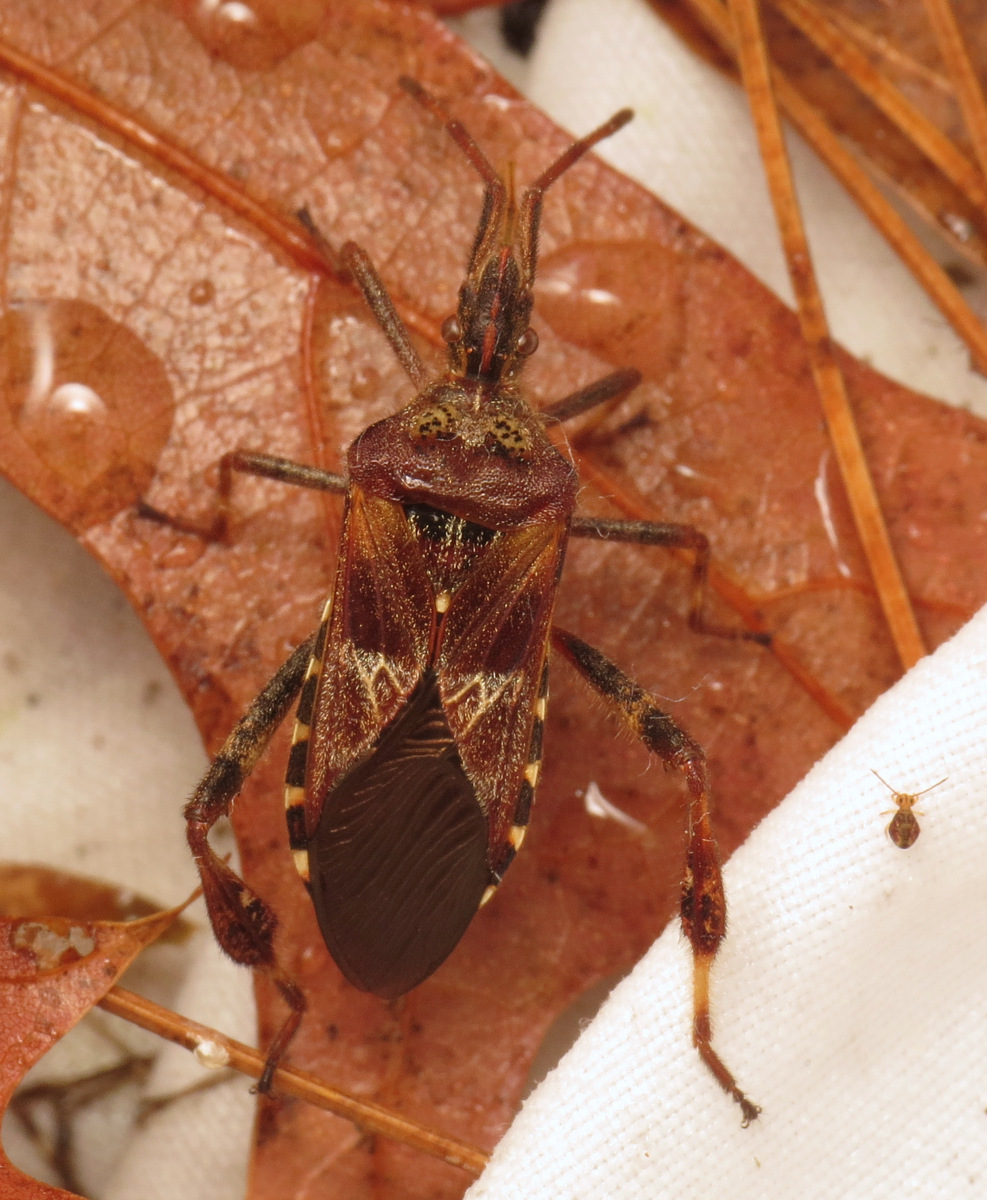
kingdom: Animalia
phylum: Arthropoda
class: Insecta
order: Hemiptera
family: Coreidae
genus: Leptoglossus
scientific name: Leptoglossus occidentalis
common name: Western conifer-seed bug
